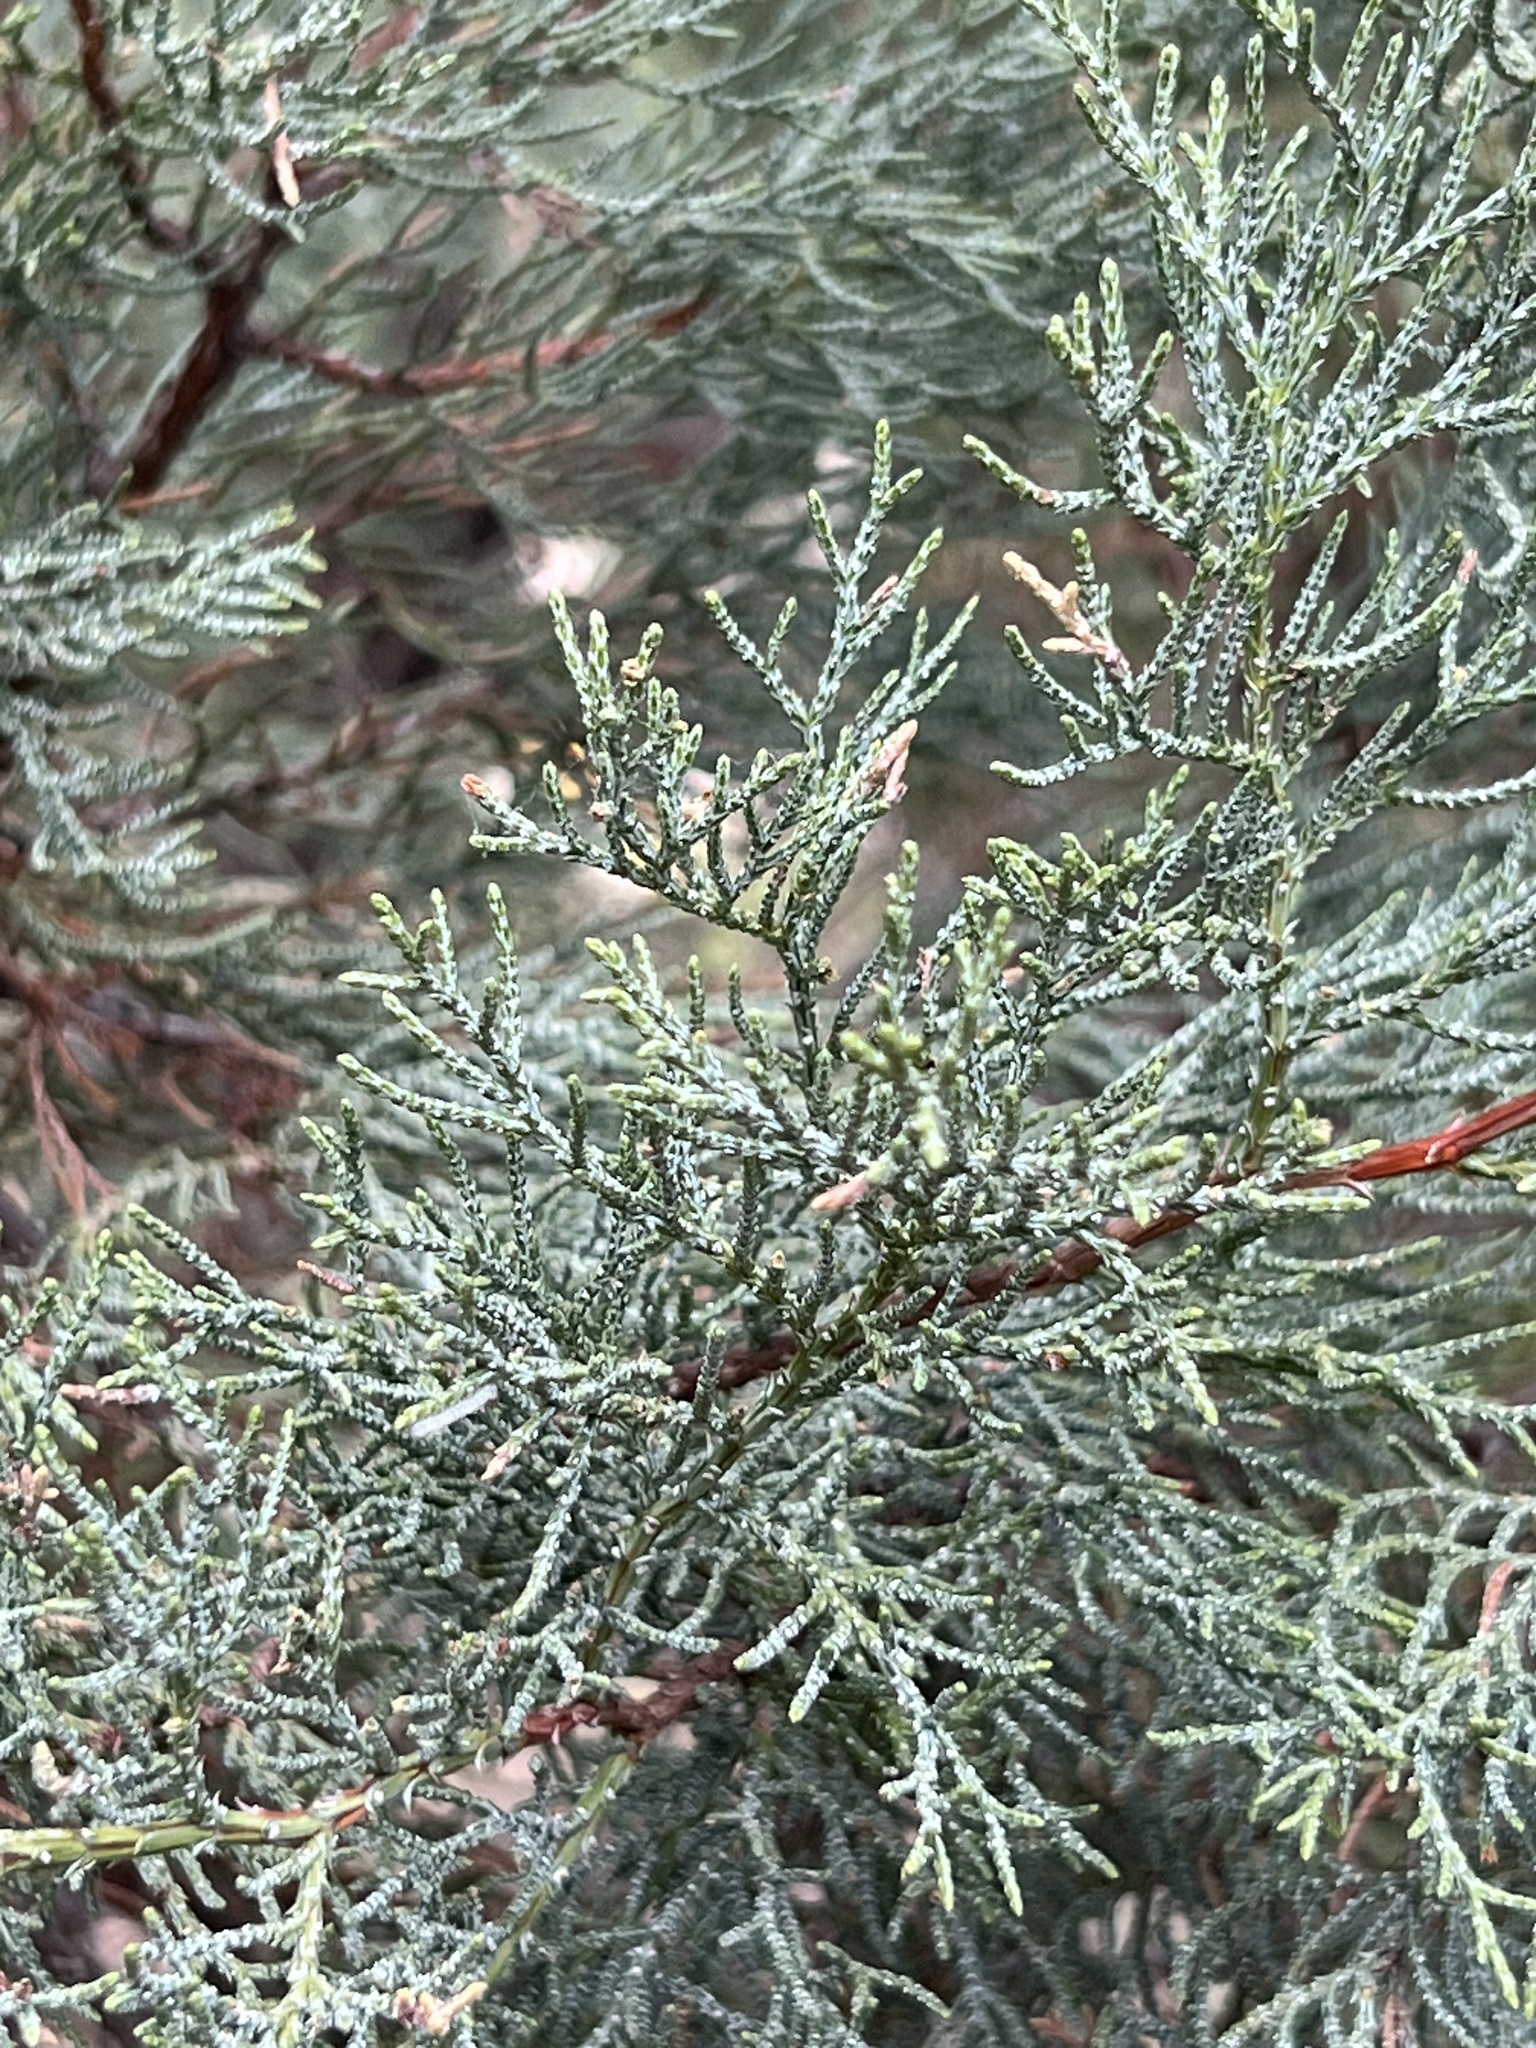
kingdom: Plantae
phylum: Tracheophyta
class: Pinopsida
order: Pinales
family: Cupressaceae
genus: Juniperus
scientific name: Juniperus deppeana
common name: Alligator juniper
